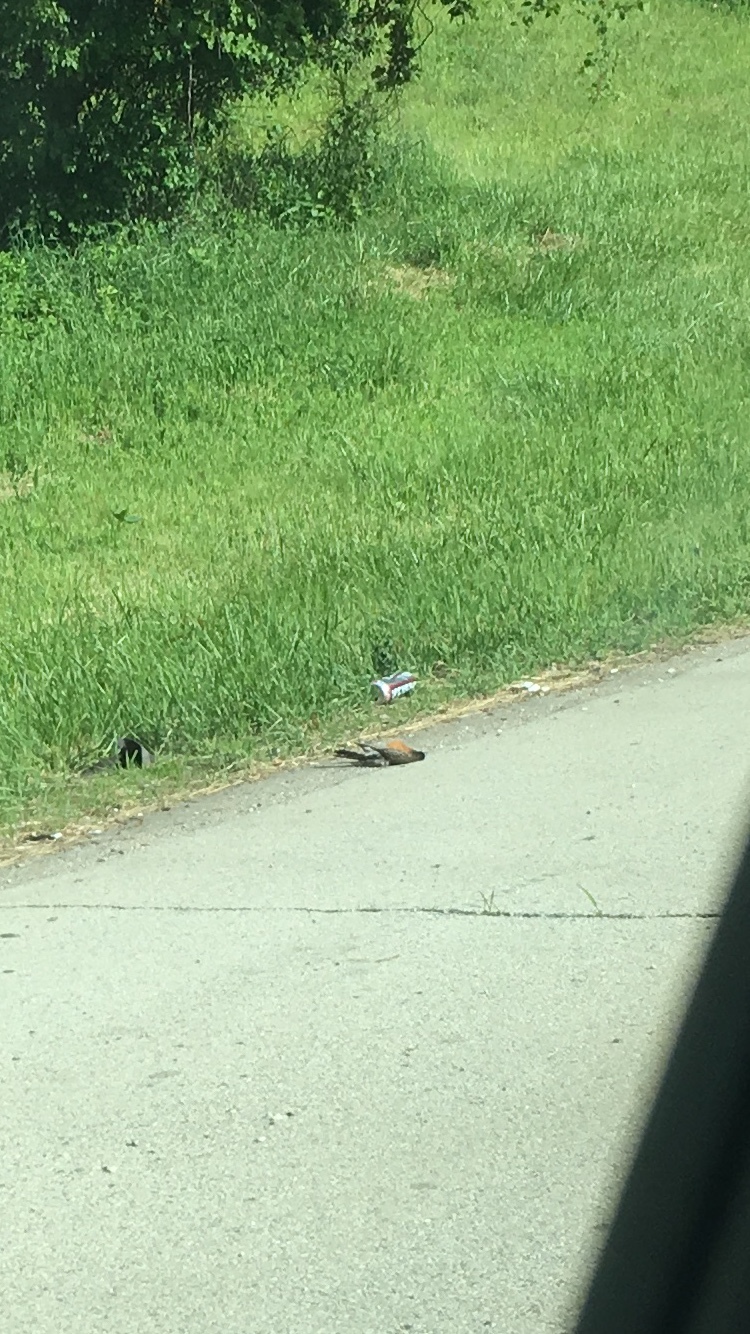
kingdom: Animalia
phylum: Chordata
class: Aves
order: Passeriformes
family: Turdidae
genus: Turdus
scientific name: Turdus migratorius
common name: American robin
